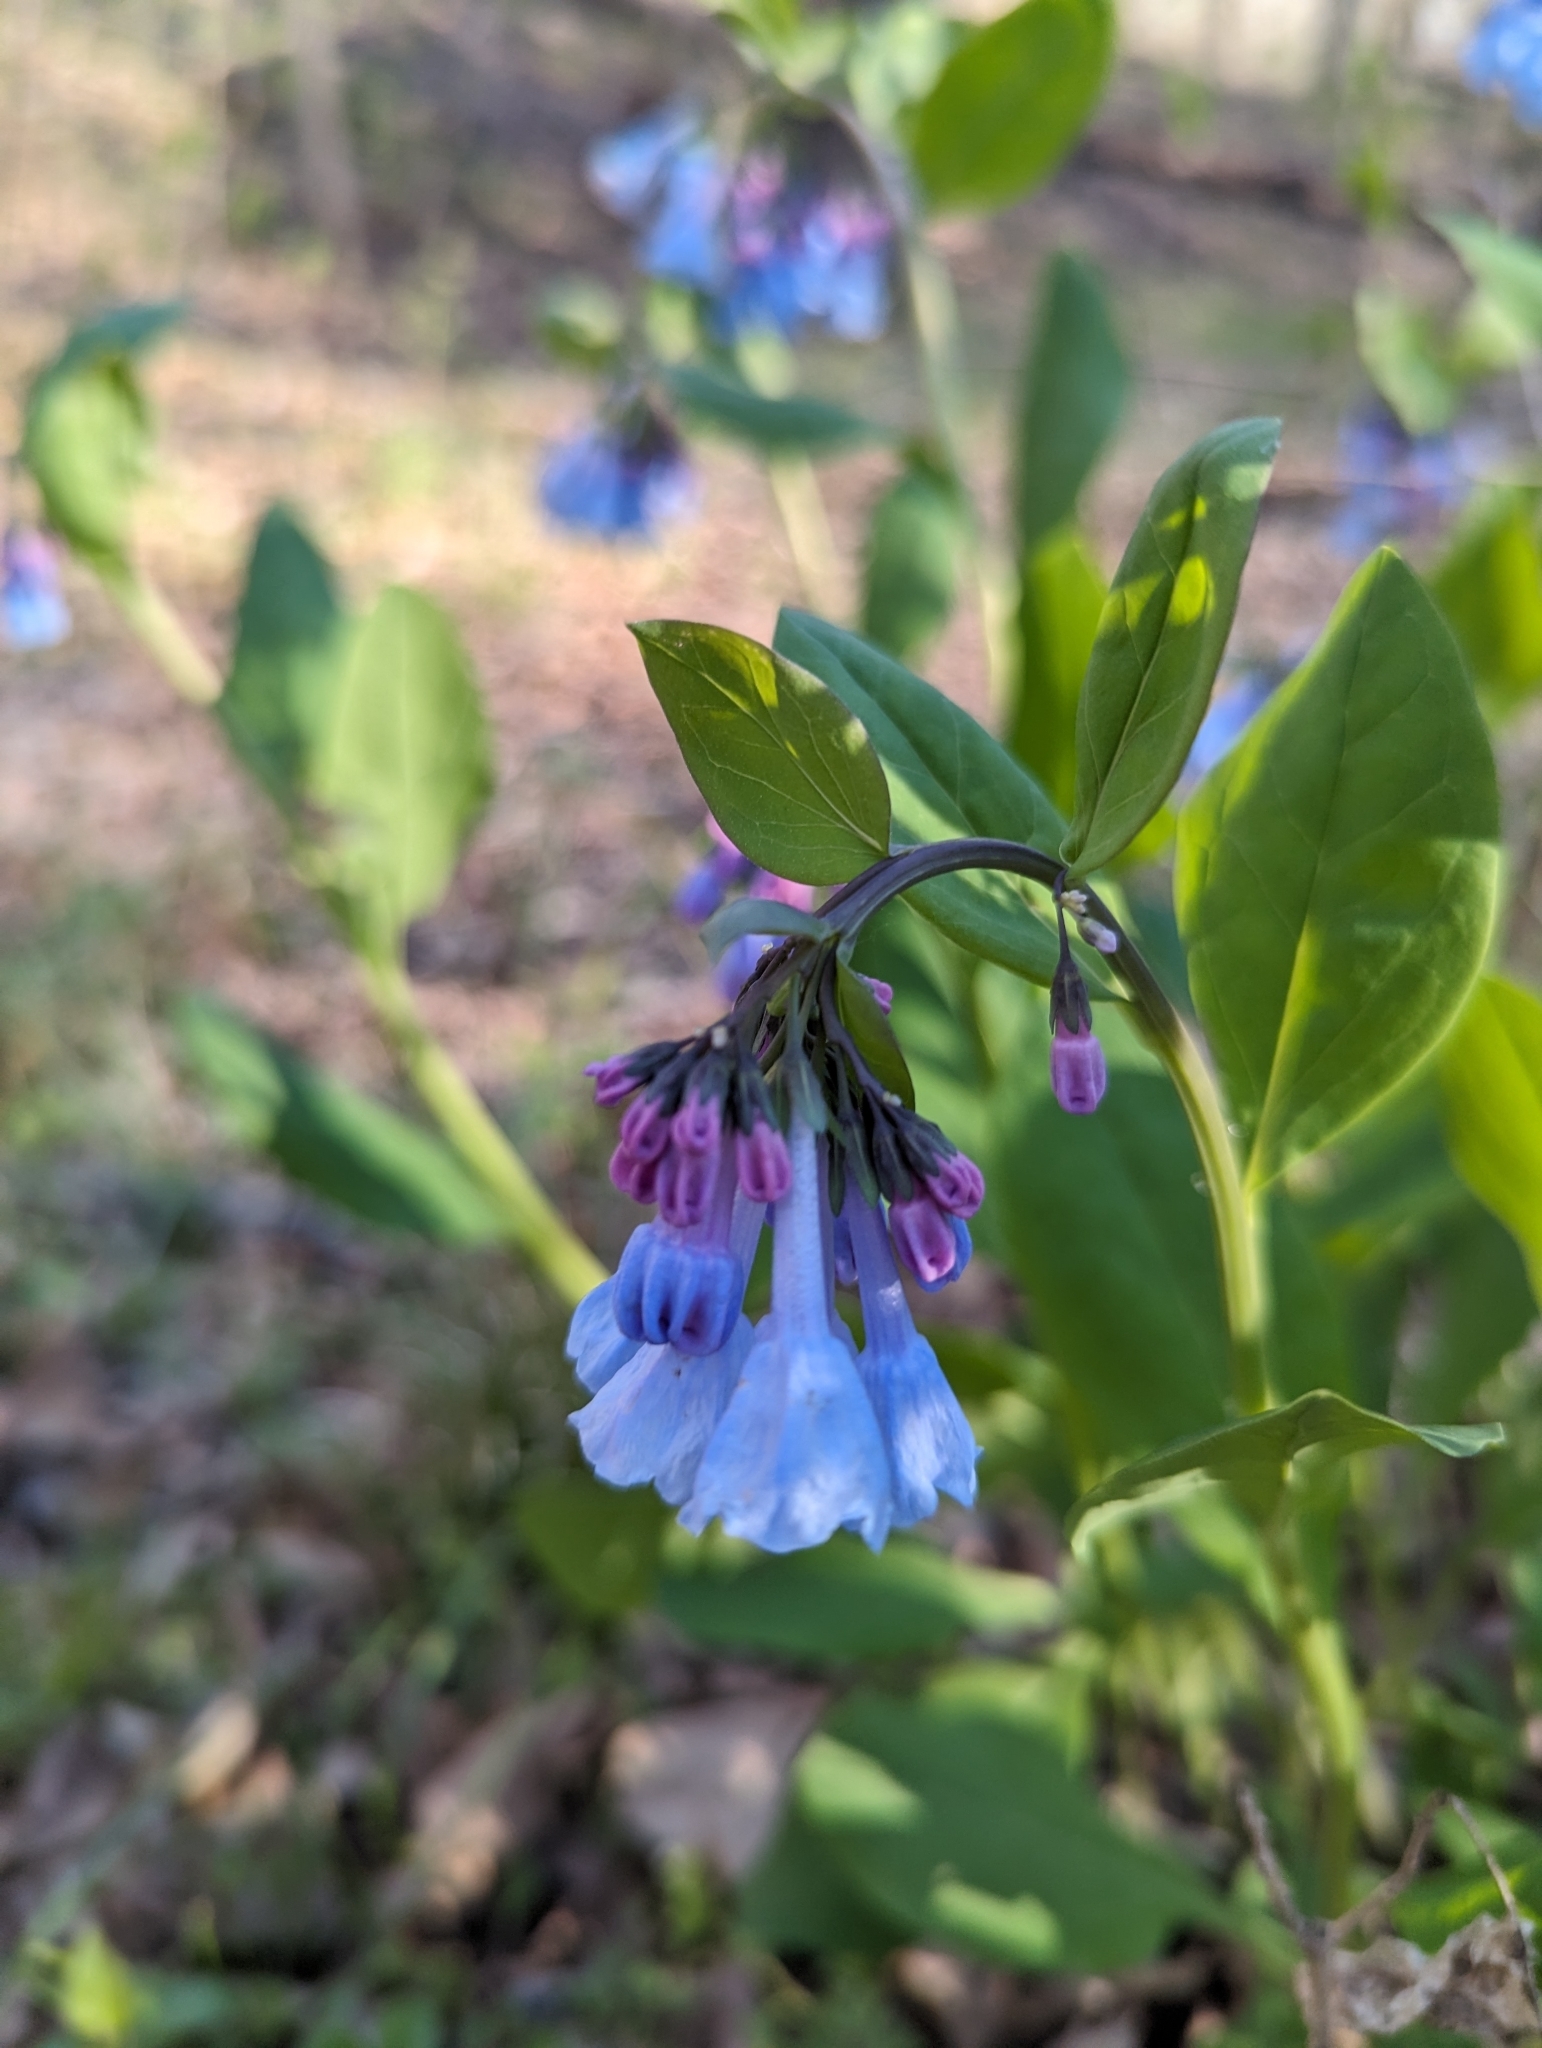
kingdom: Plantae
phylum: Tracheophyta
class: Magnoliopsida
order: Boraginales
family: Boraginaceae
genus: Mertensia
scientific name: Mertensia virginica
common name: Virginia bluebells
